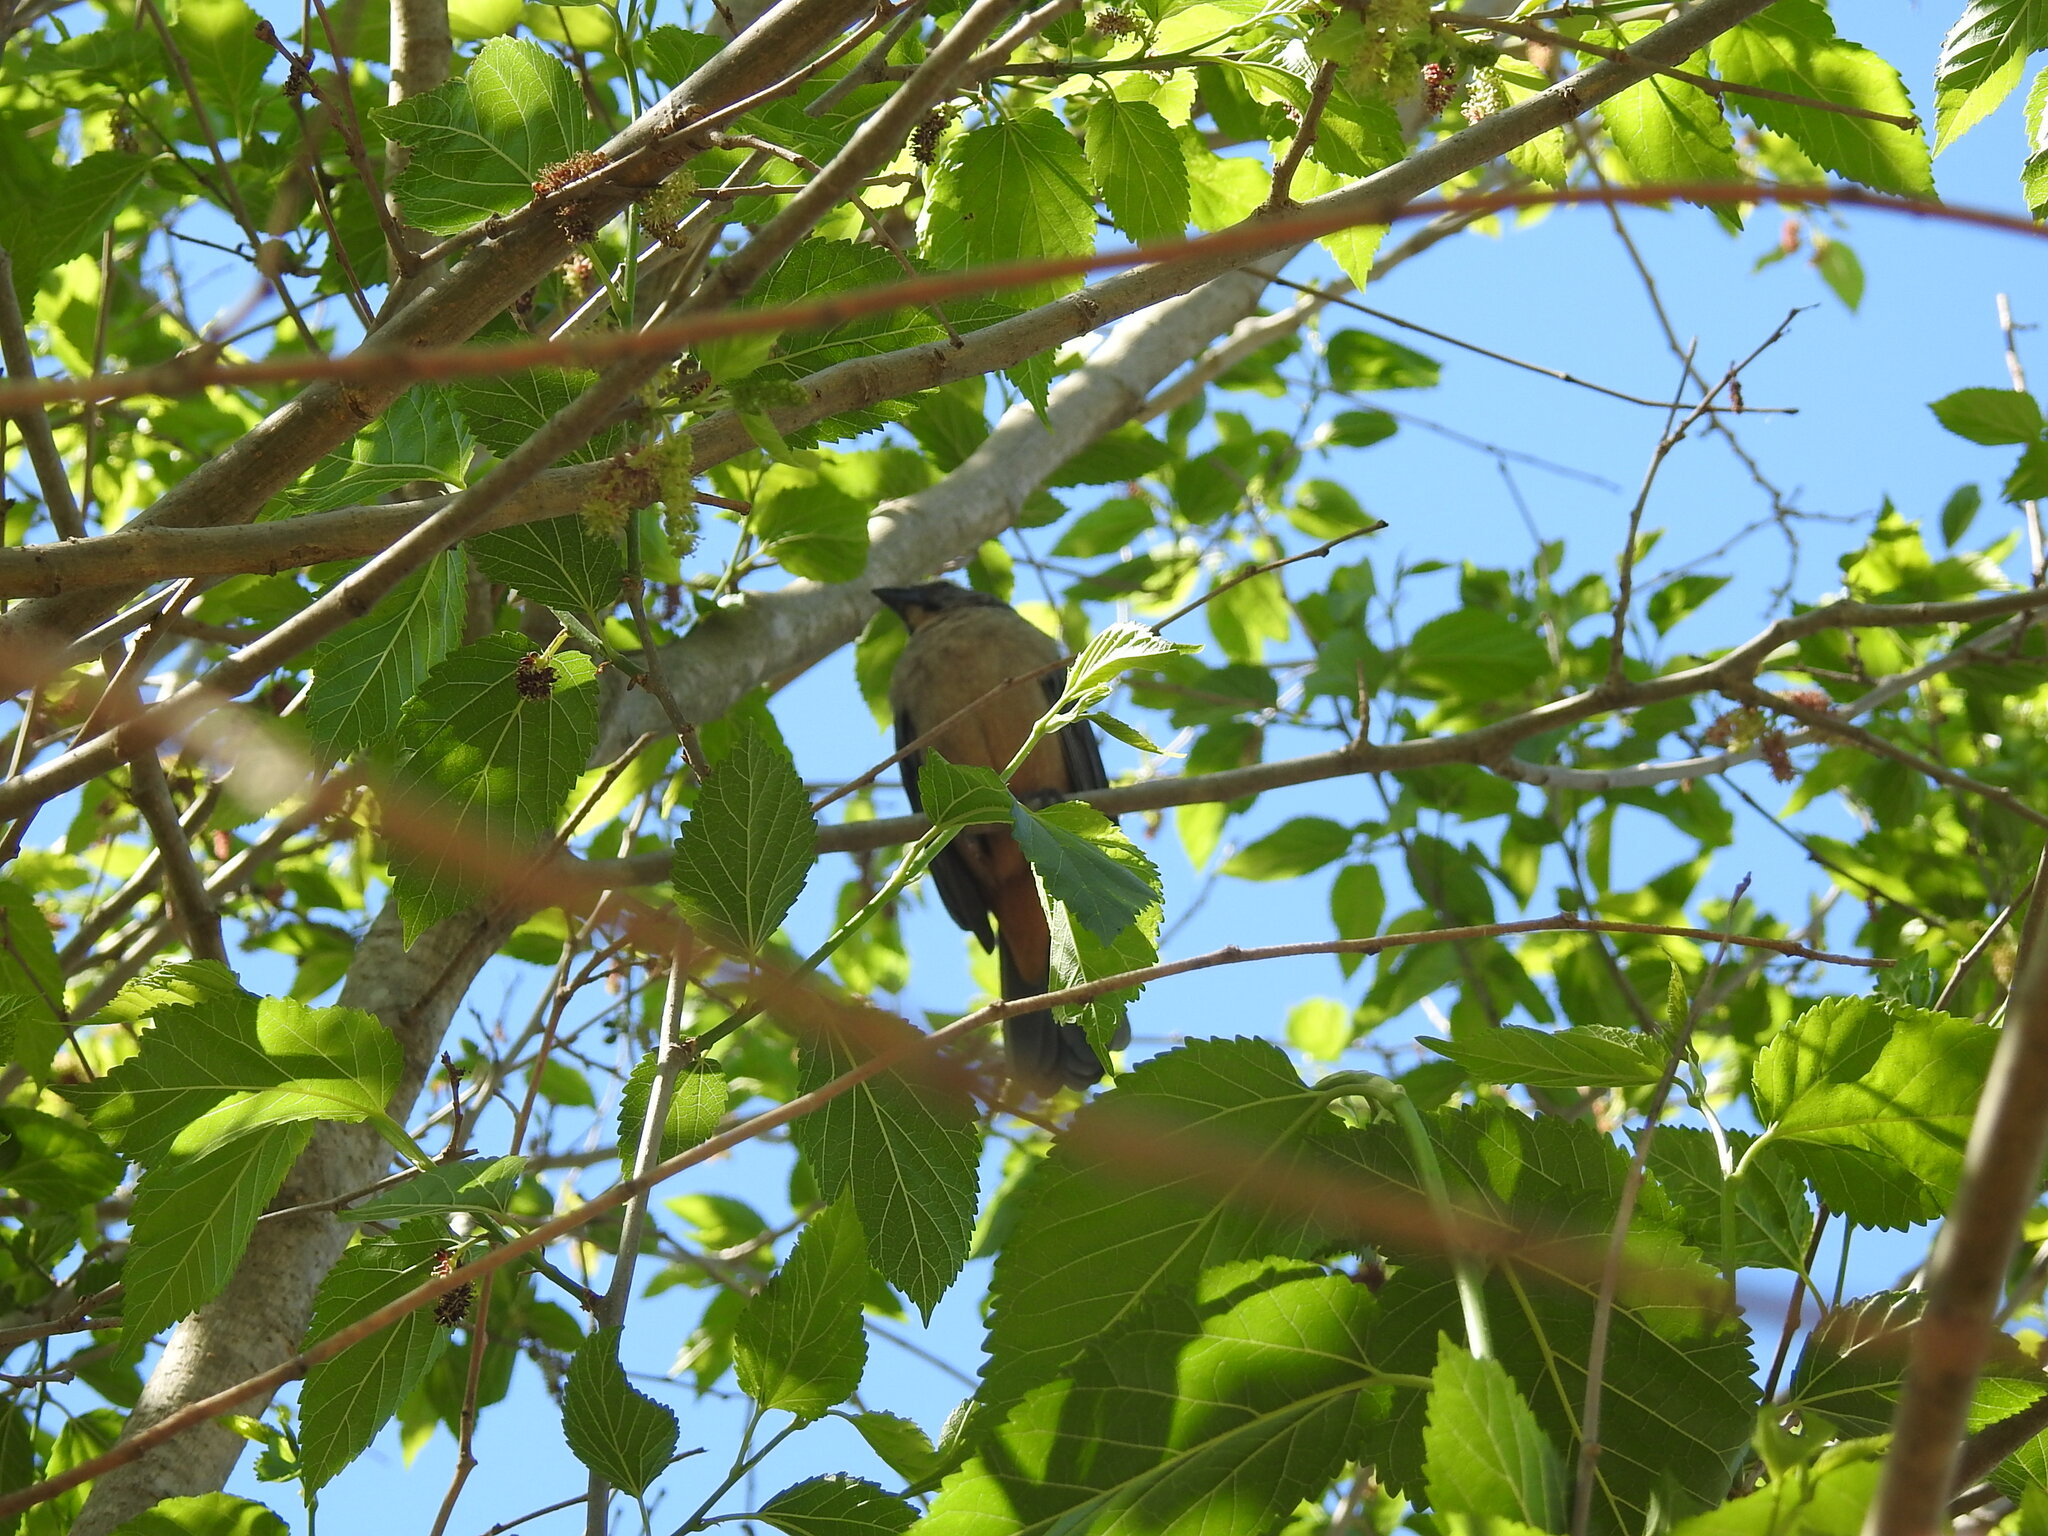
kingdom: Animalia
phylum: Chordata
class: Aves
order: Passeriformes
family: Thraupidae
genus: Saltator
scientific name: Saltator coerulescens
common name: Grayish saltator
